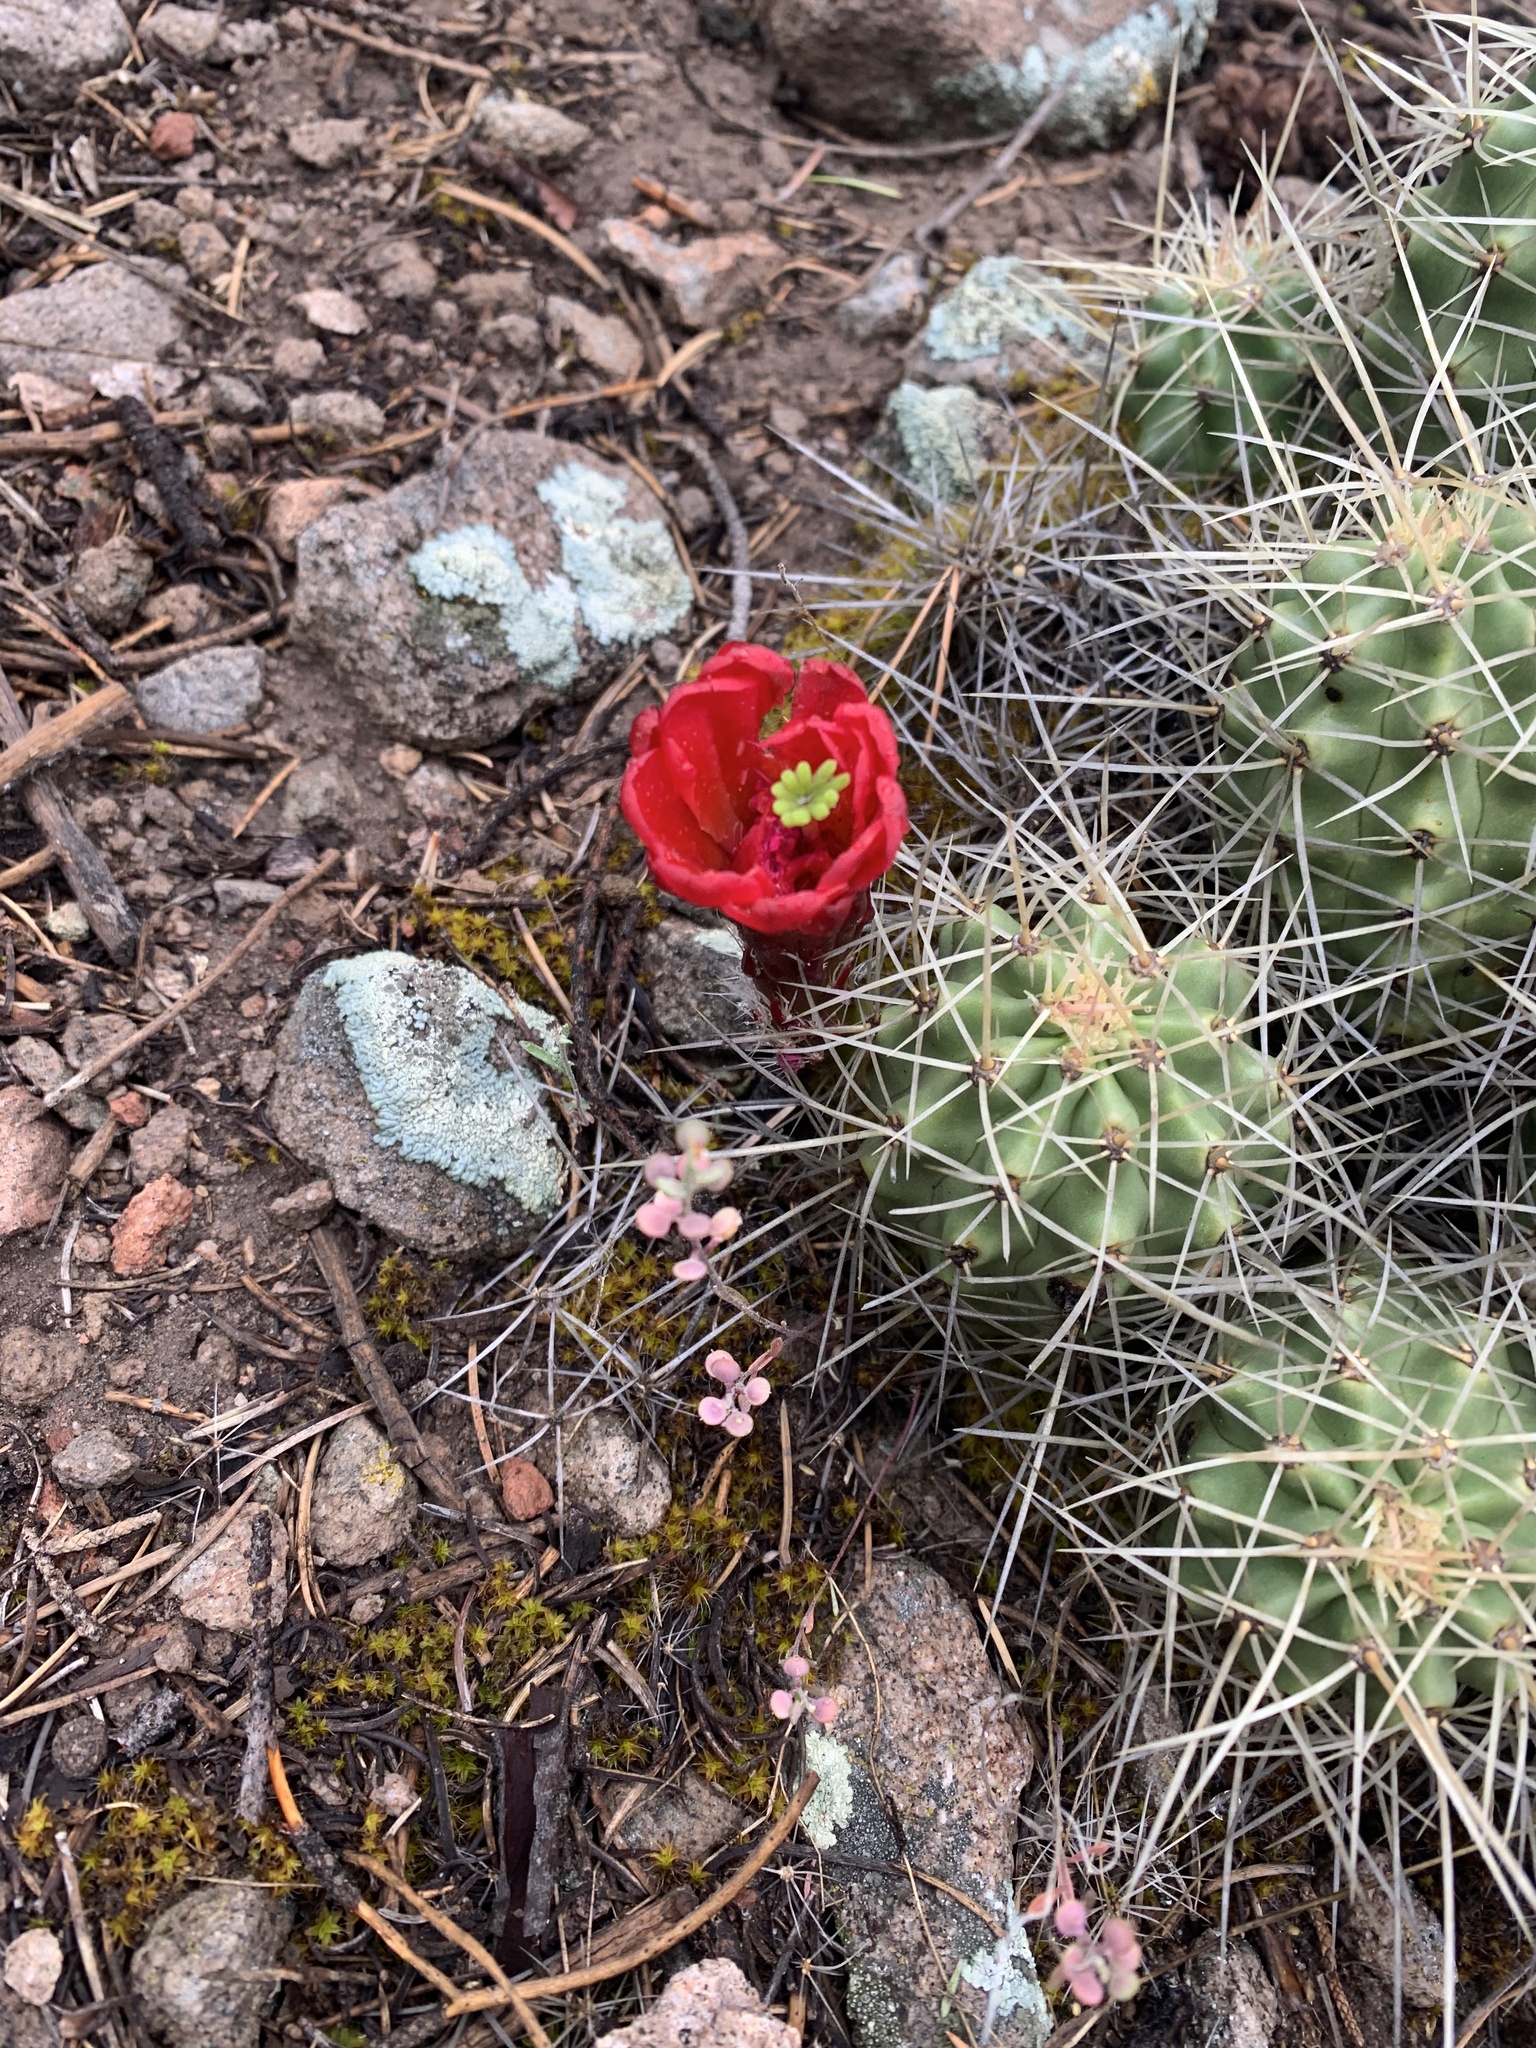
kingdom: Plantae
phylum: Tracheophyta
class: Magnoliopsida
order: Caryophyllales
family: Cactaceae
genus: Echinocereus
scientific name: Echinocereus triglochidiatus
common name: Claretcup hedgehog
